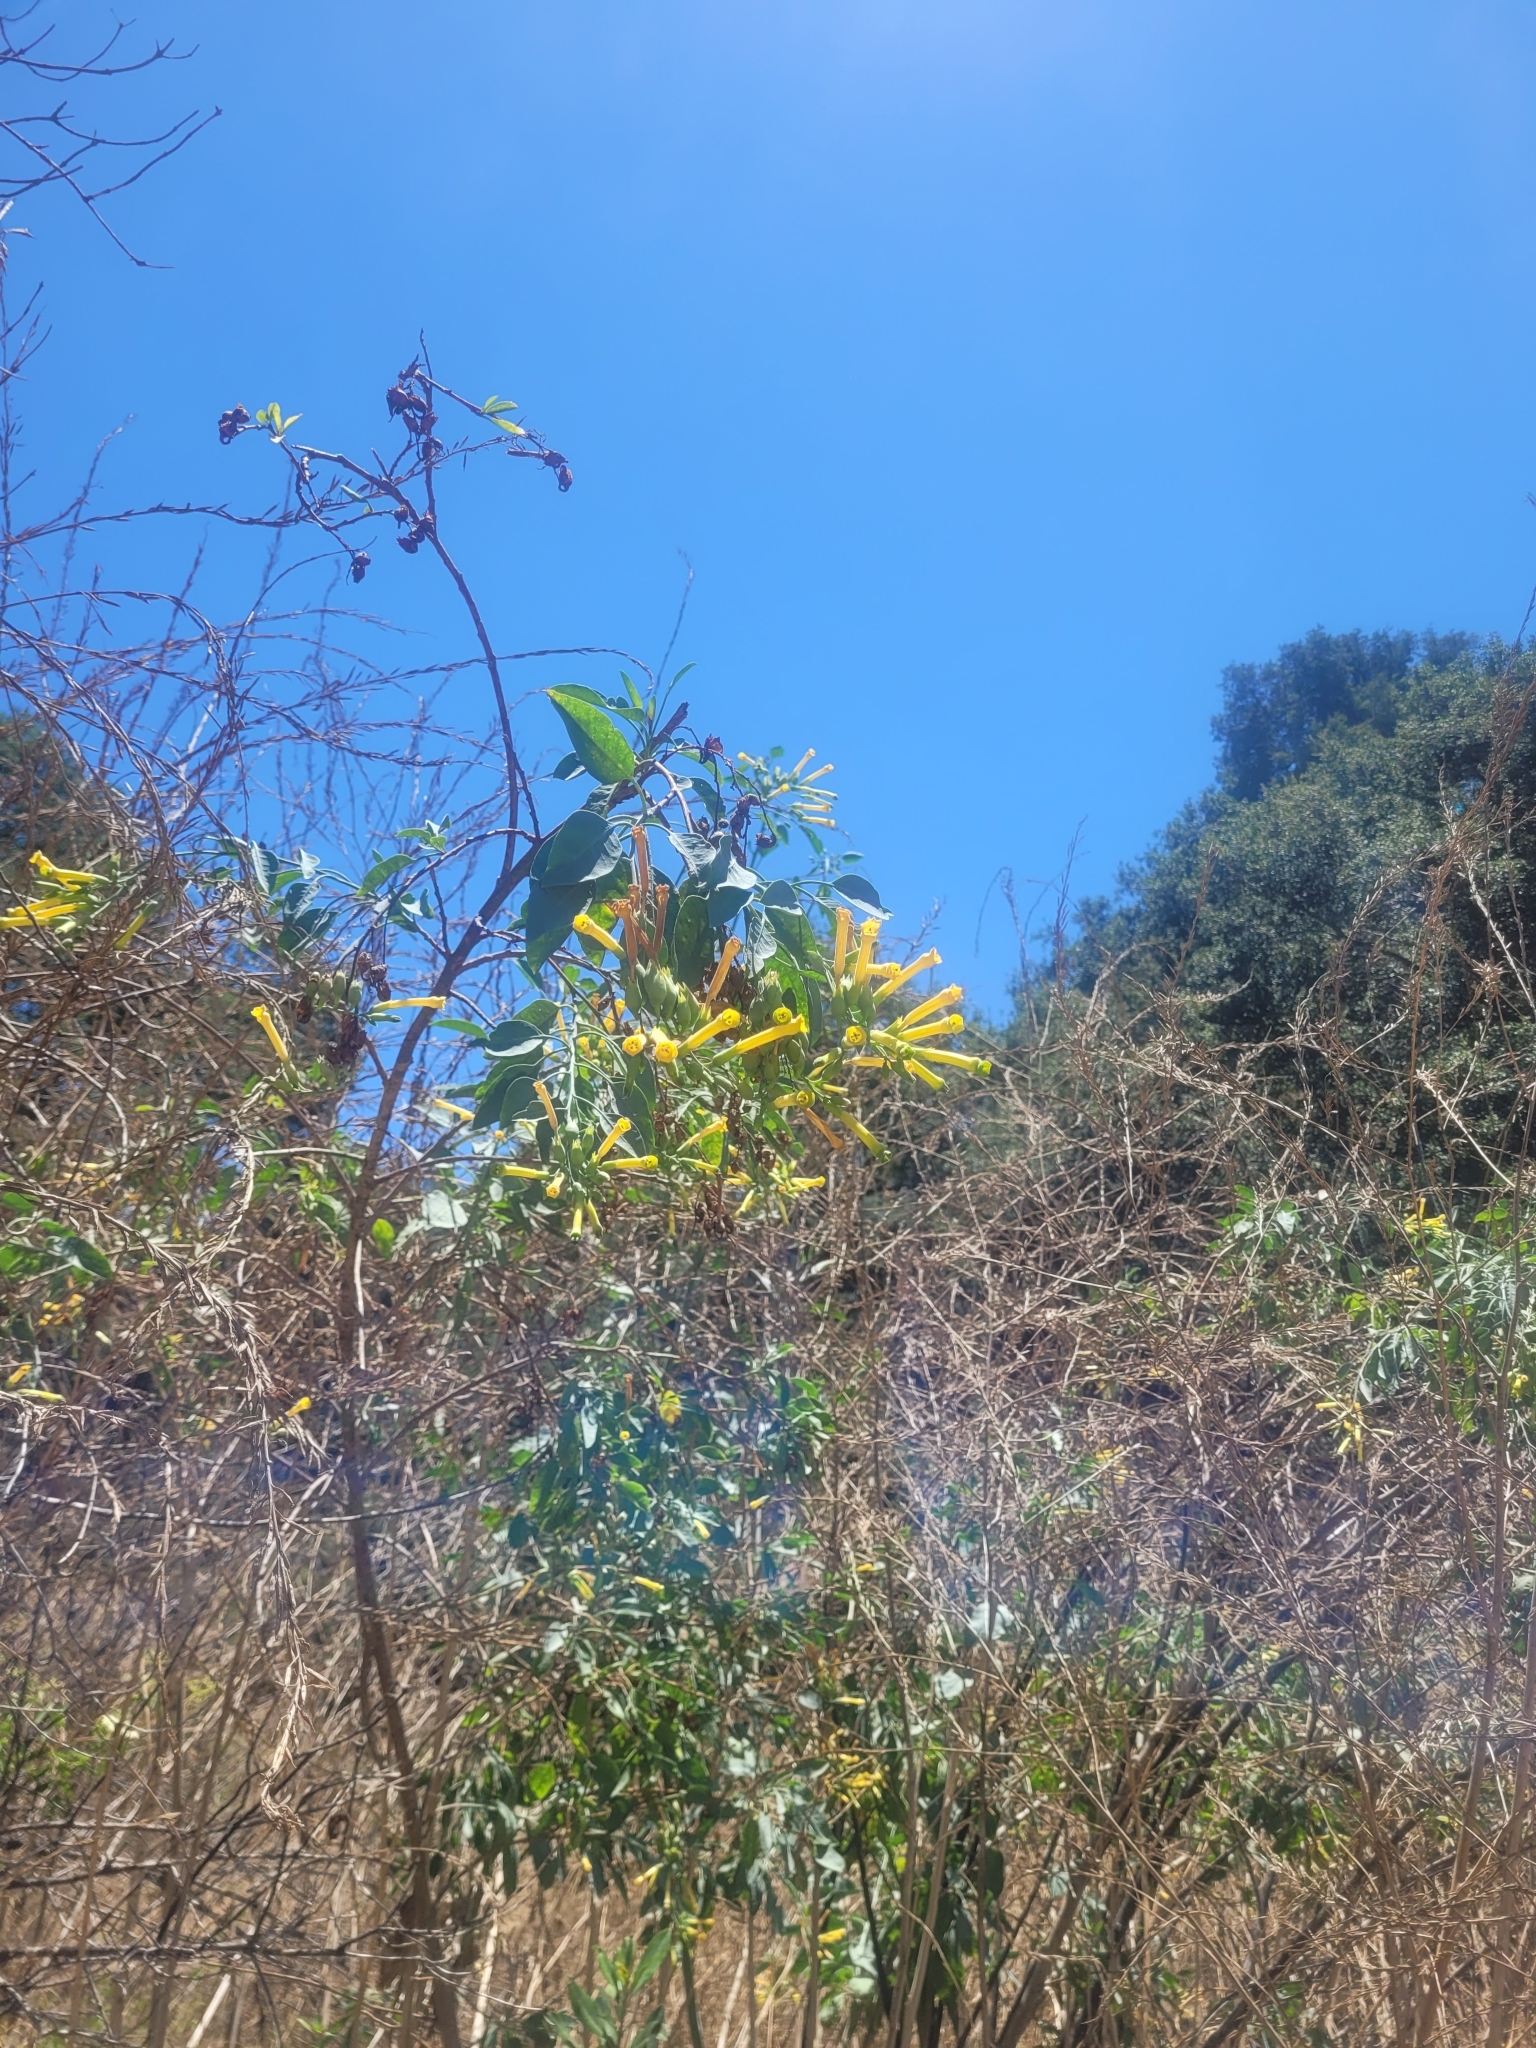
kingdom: Plantae
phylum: Tracheophyta
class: Magnoliopsida
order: Solanales
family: Solanaceae
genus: Nicotiana
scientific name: Nicotiana glauca
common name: Tree tobacco
